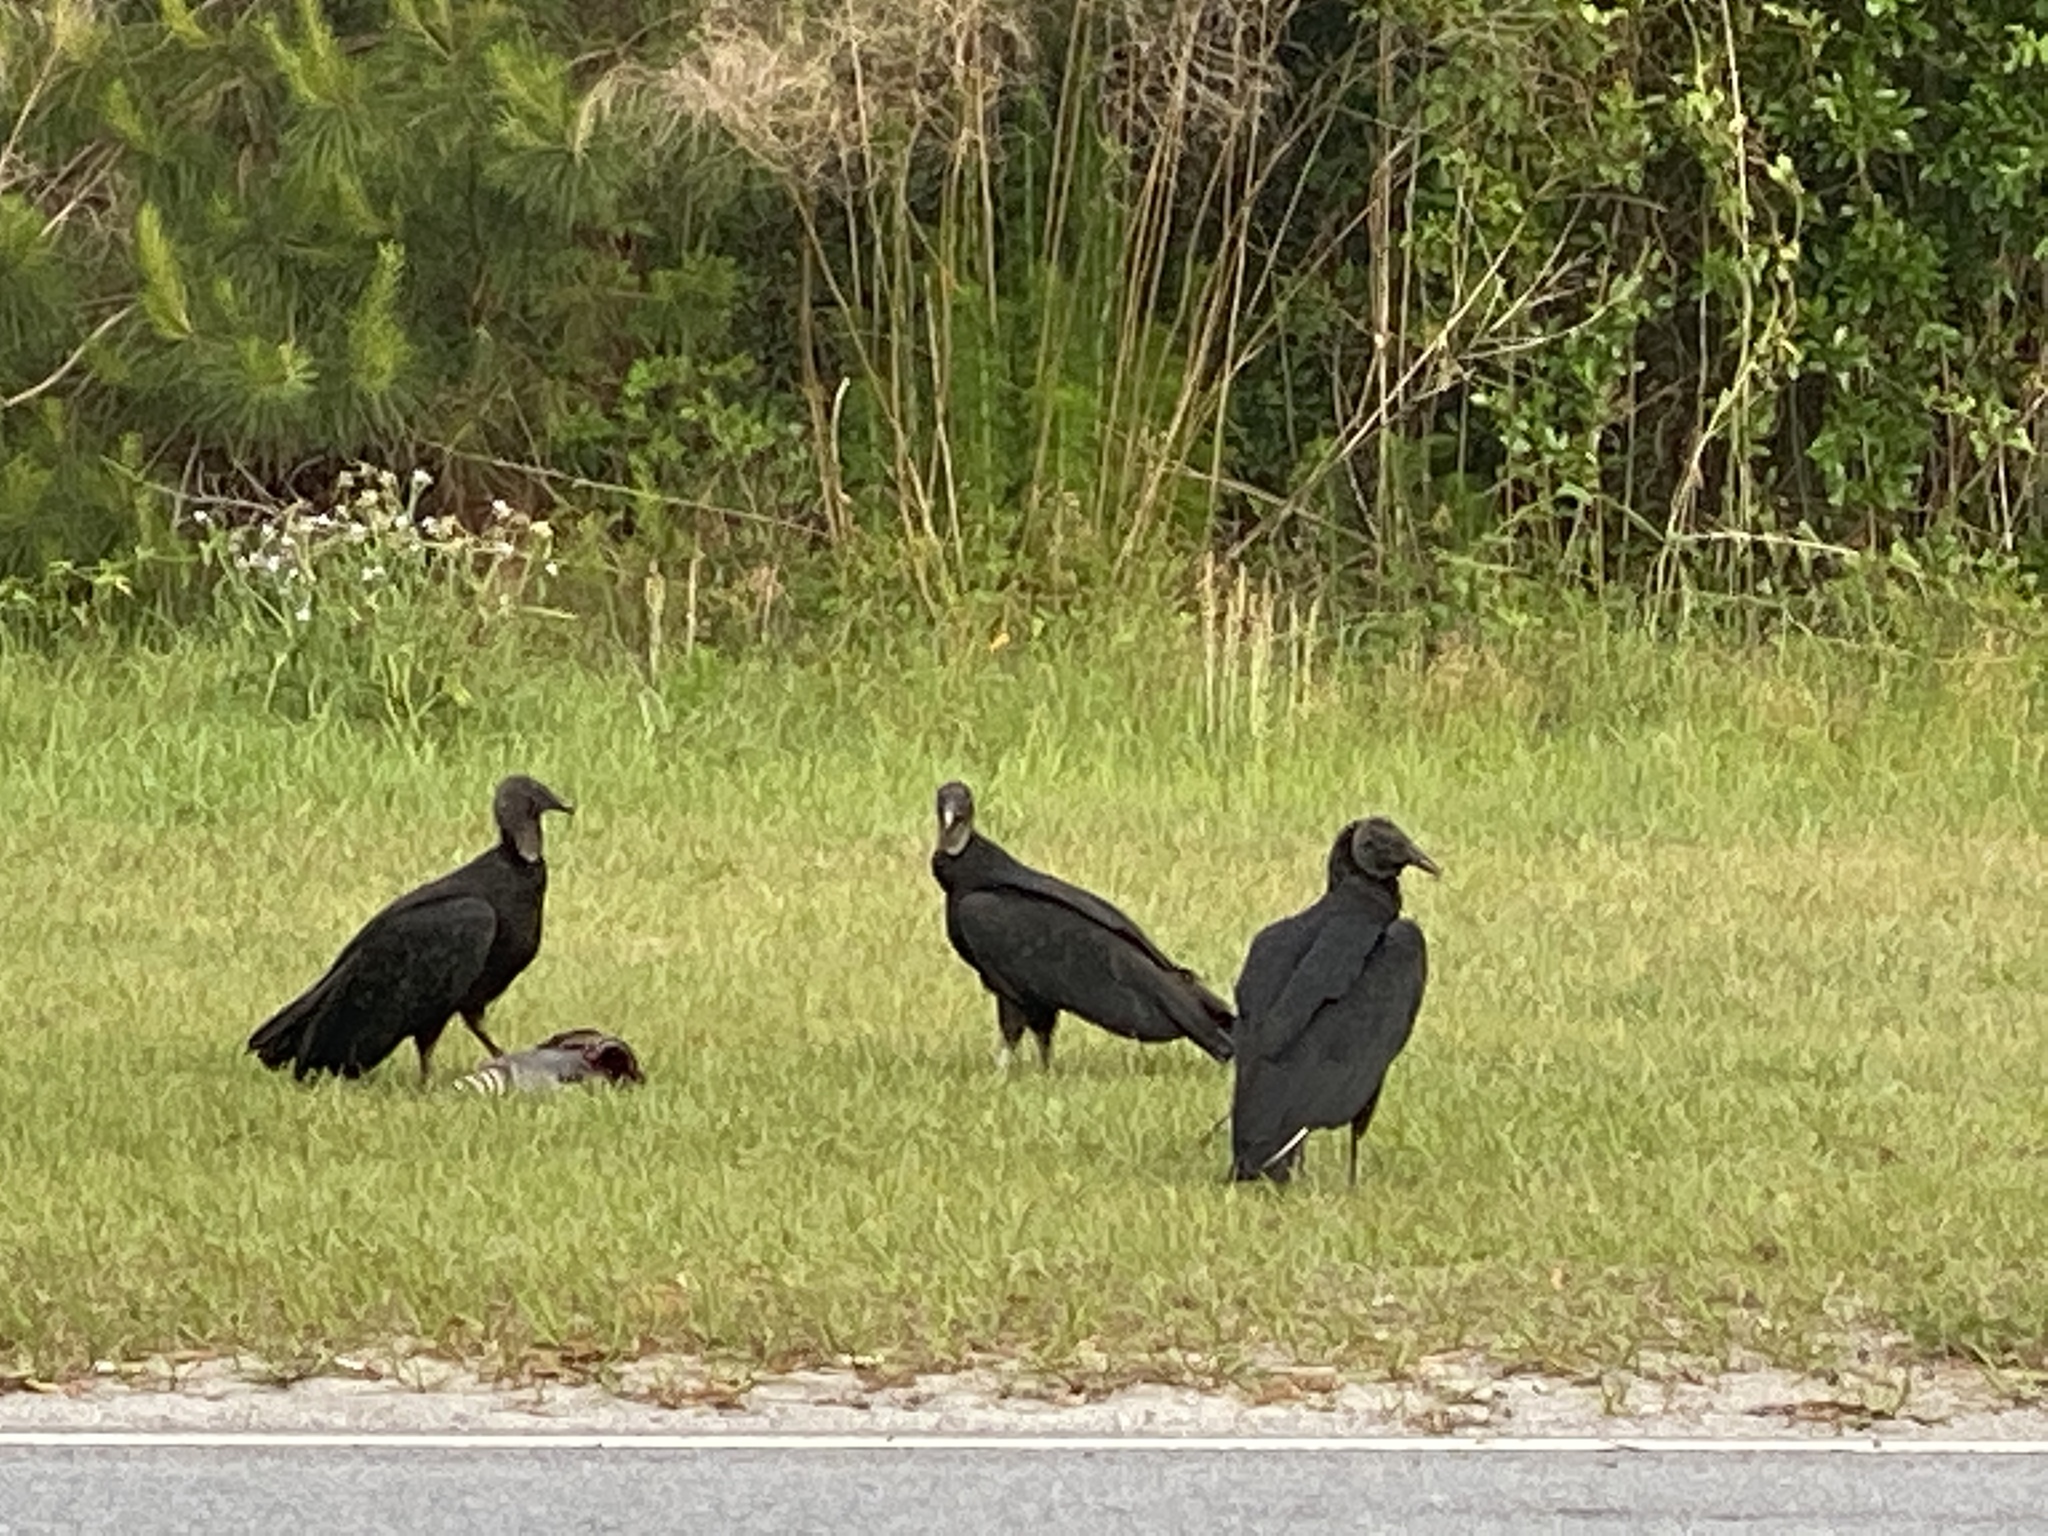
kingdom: Animalia
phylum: Chordata
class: Mammalia
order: Cingulata
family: Dasypodidae
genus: Dasypus
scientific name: Dasypus novemcinctus
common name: Nine-banded armadillo
